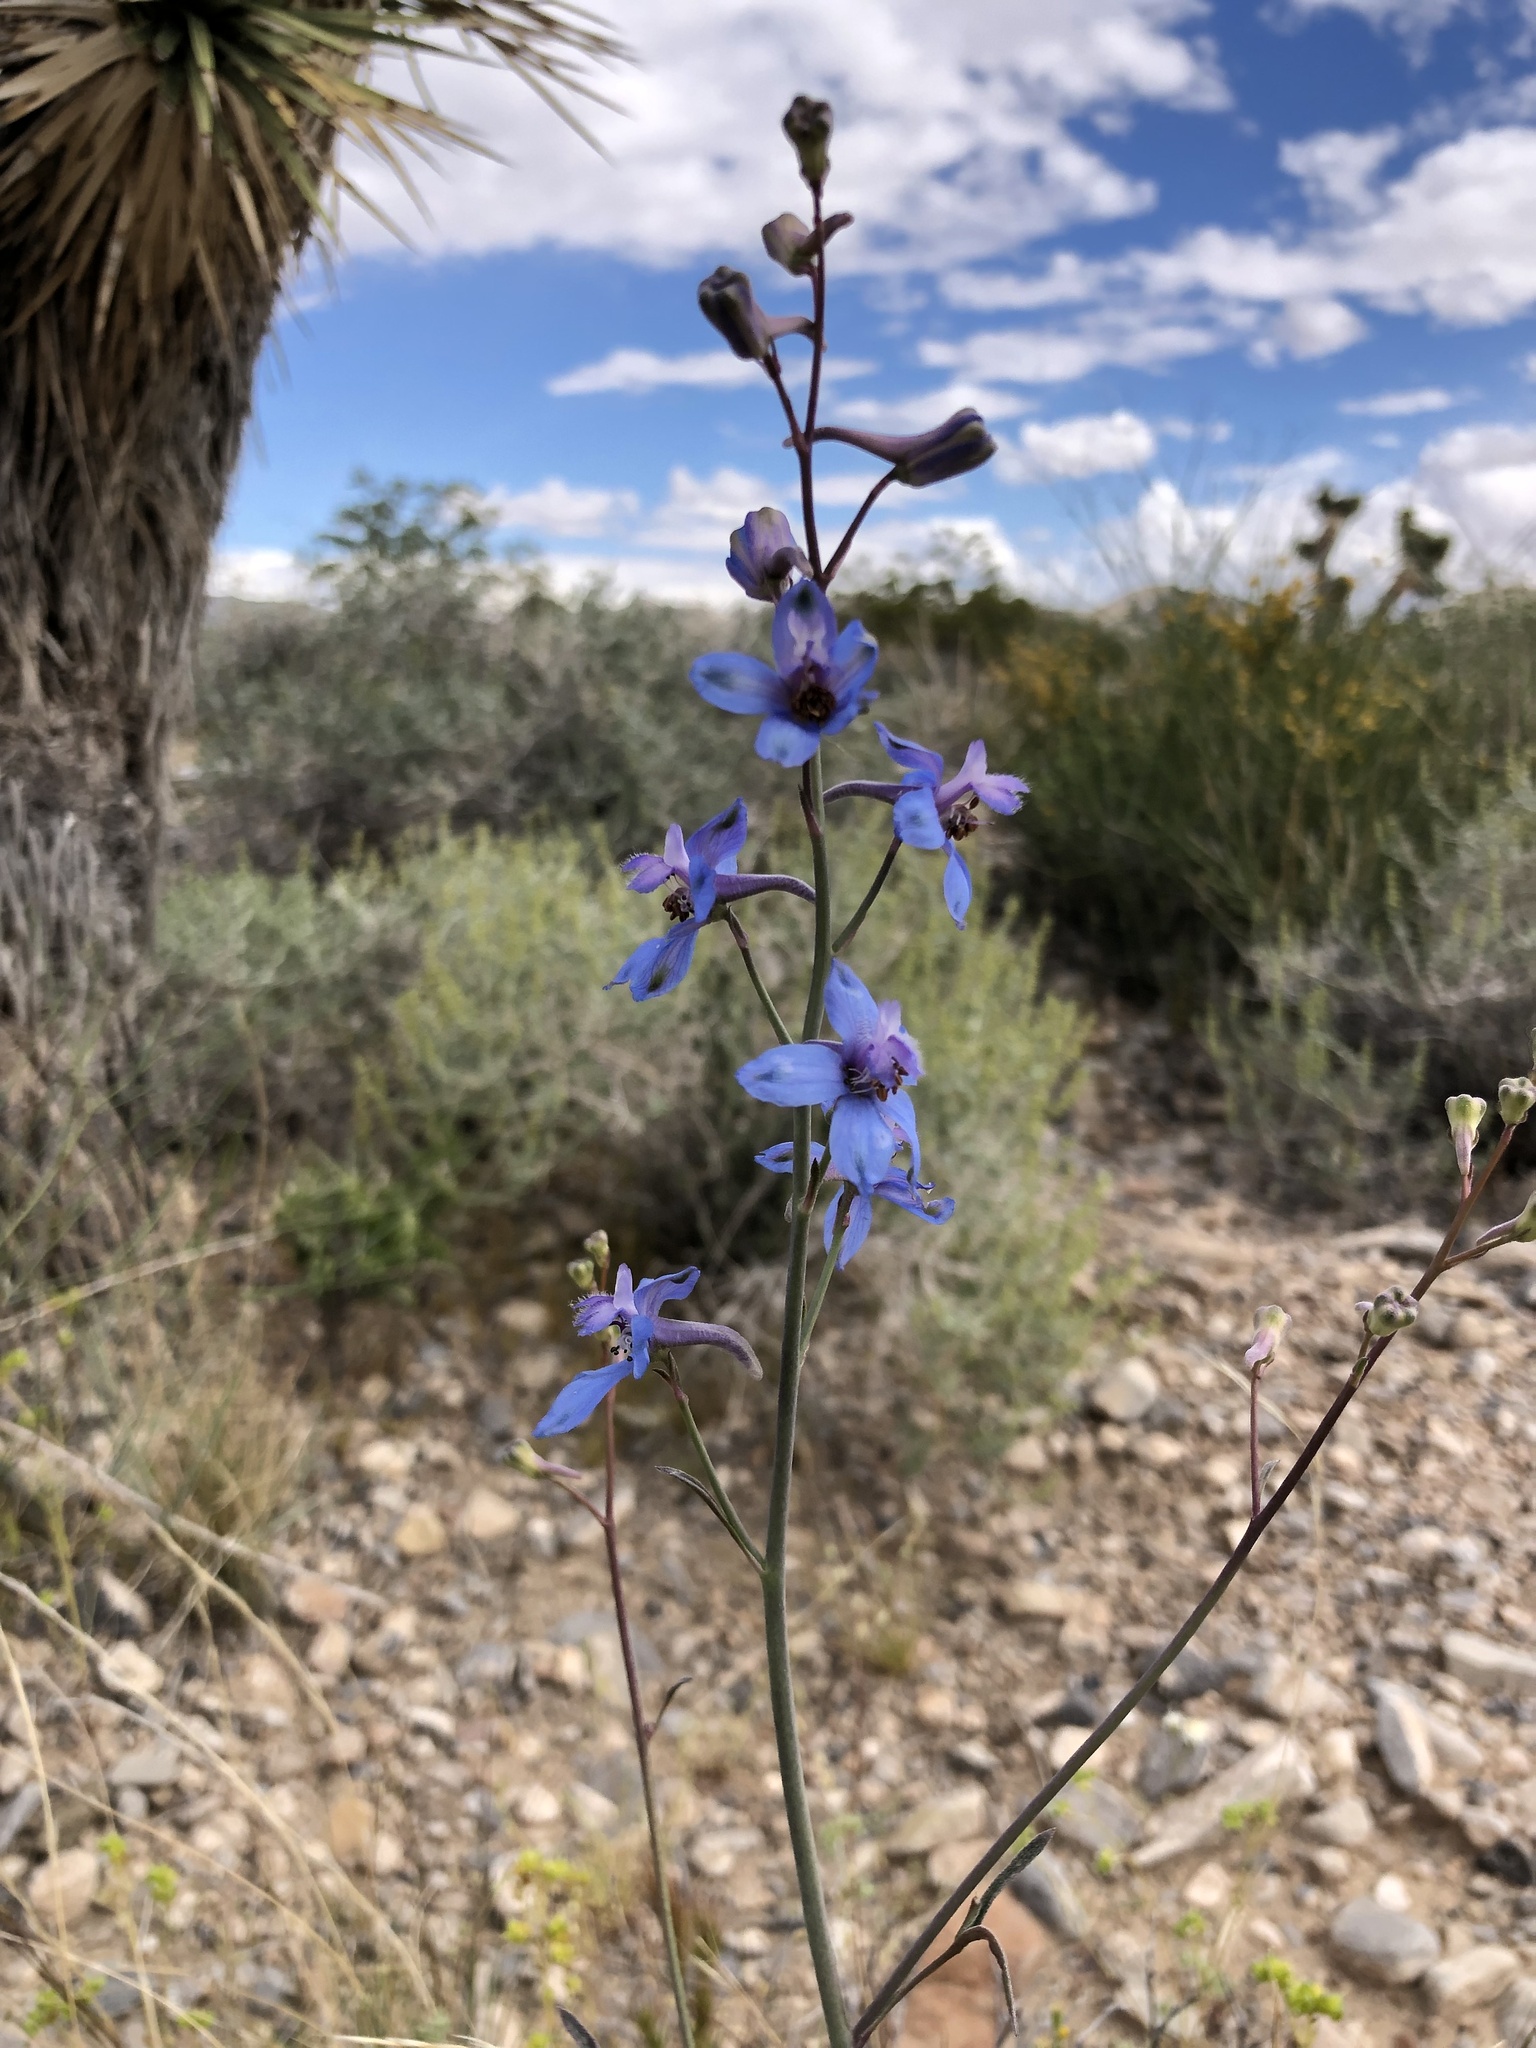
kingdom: Plantae
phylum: Tracheophyta
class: Magnoliopsida
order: Ranunculales
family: Ranunculaceae
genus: Delphinium
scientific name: Delphinium parishii
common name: Apache larkspur
